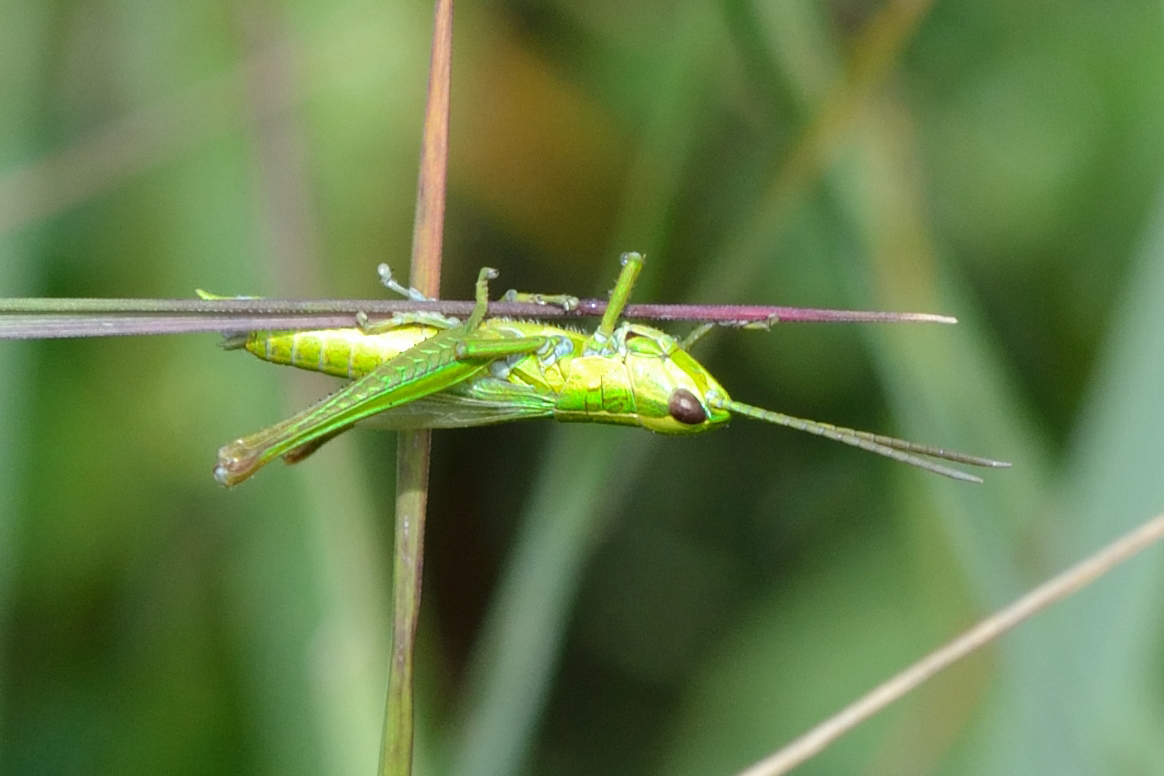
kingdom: Animalia
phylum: Arthropoda
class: Insecta
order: Orthoptera
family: Acrididae
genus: Euthystira
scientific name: Euthystira brachyptera
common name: Small gold grasshopper
